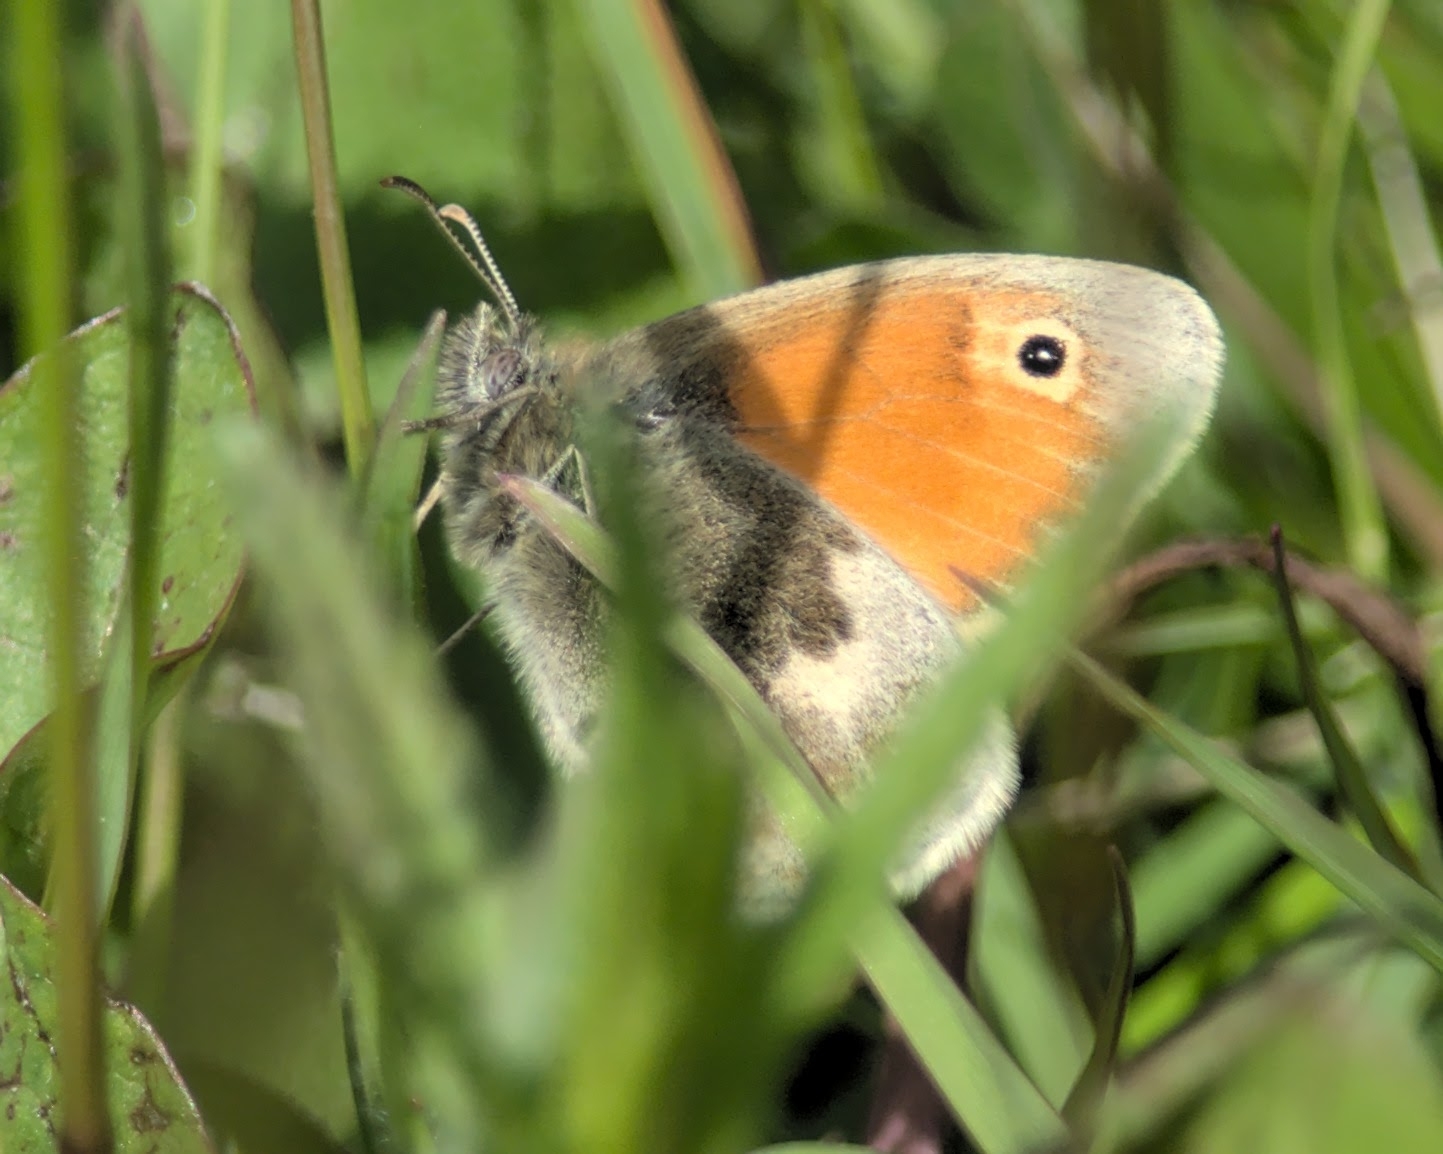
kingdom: Animalia
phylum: Arthropoda
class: Insecta
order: Lepidoptera
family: Nymphalidae
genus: Coenonympha
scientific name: Coenonympha pamphilus
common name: Small heath
